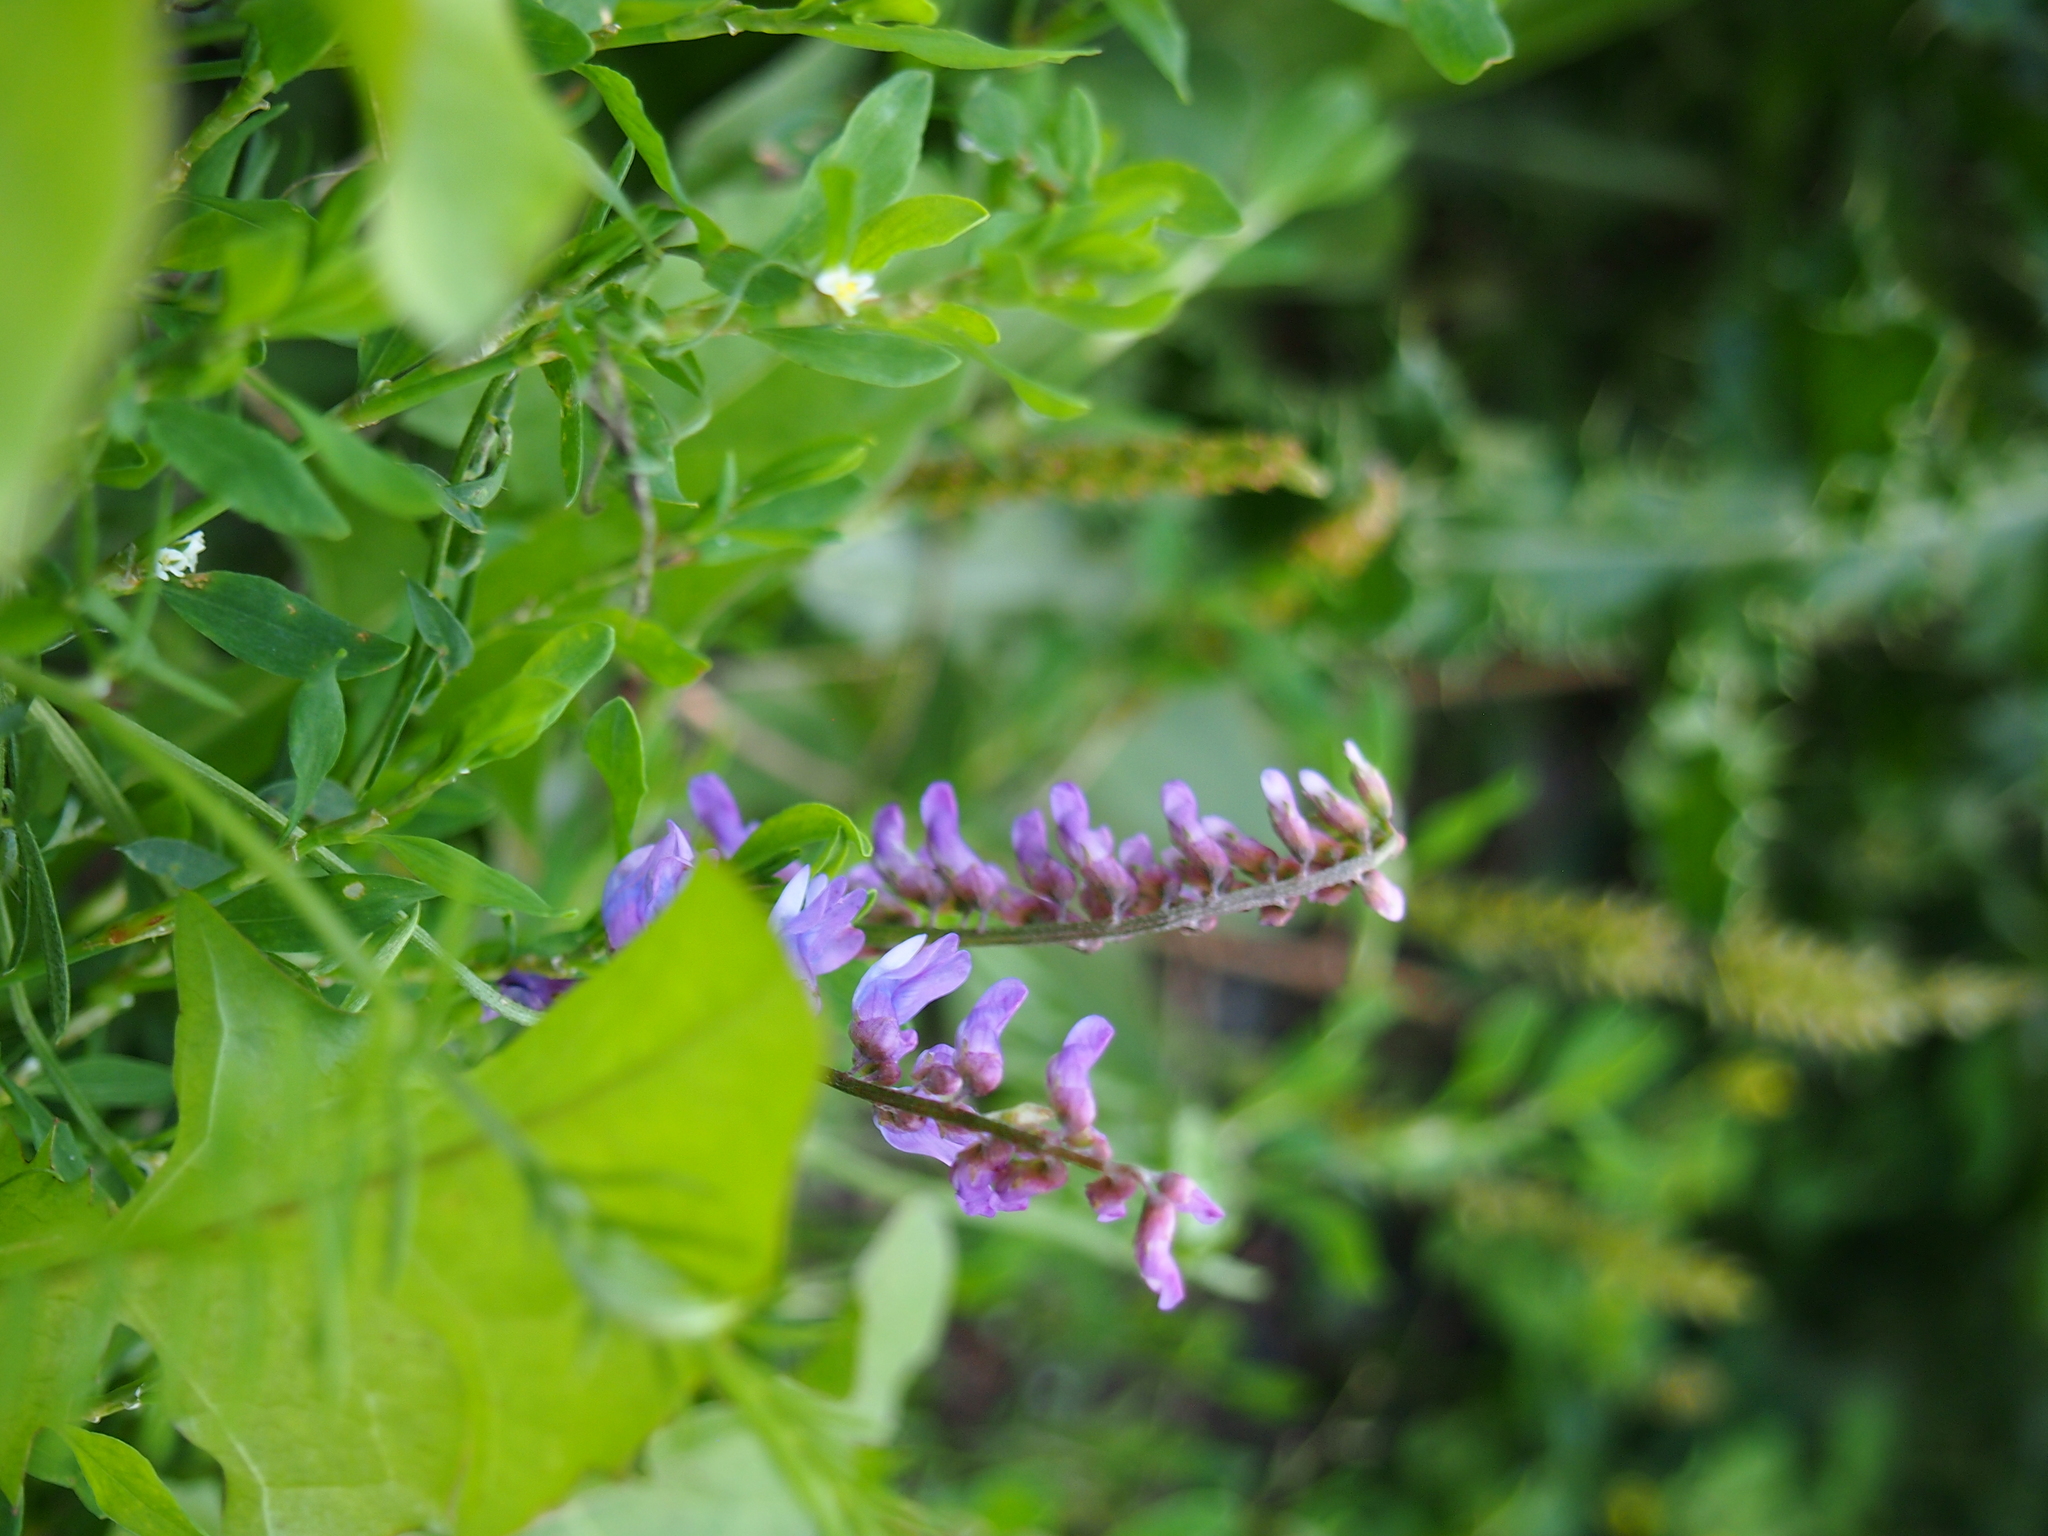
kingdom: Plantae
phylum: Tracheophyta
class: Magnoliopsida
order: Fabales
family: Fabaceae
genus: Vicia
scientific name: Vicia cracca
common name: Bird vetch
